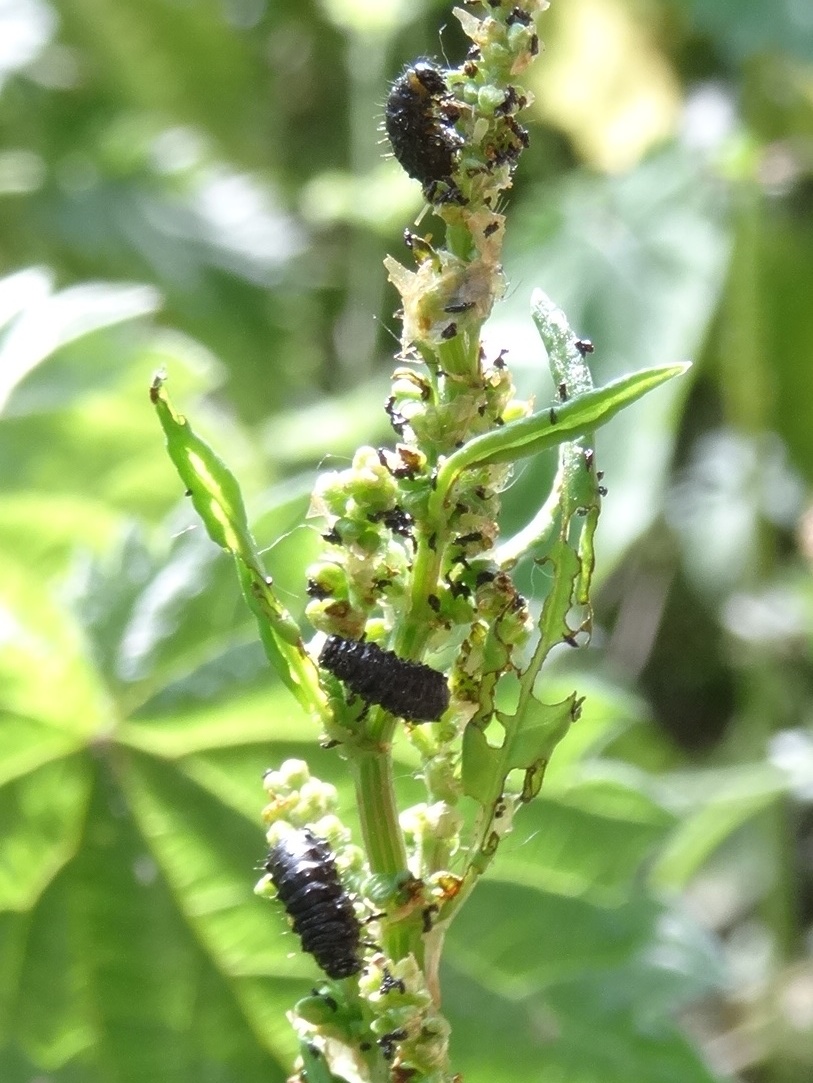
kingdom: Animalia
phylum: Arthropoda
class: Insecta
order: Coleoptera
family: Chrysomelidae
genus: Gastrophysa
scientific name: Gastrophysa viridula
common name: Green dock beetle
